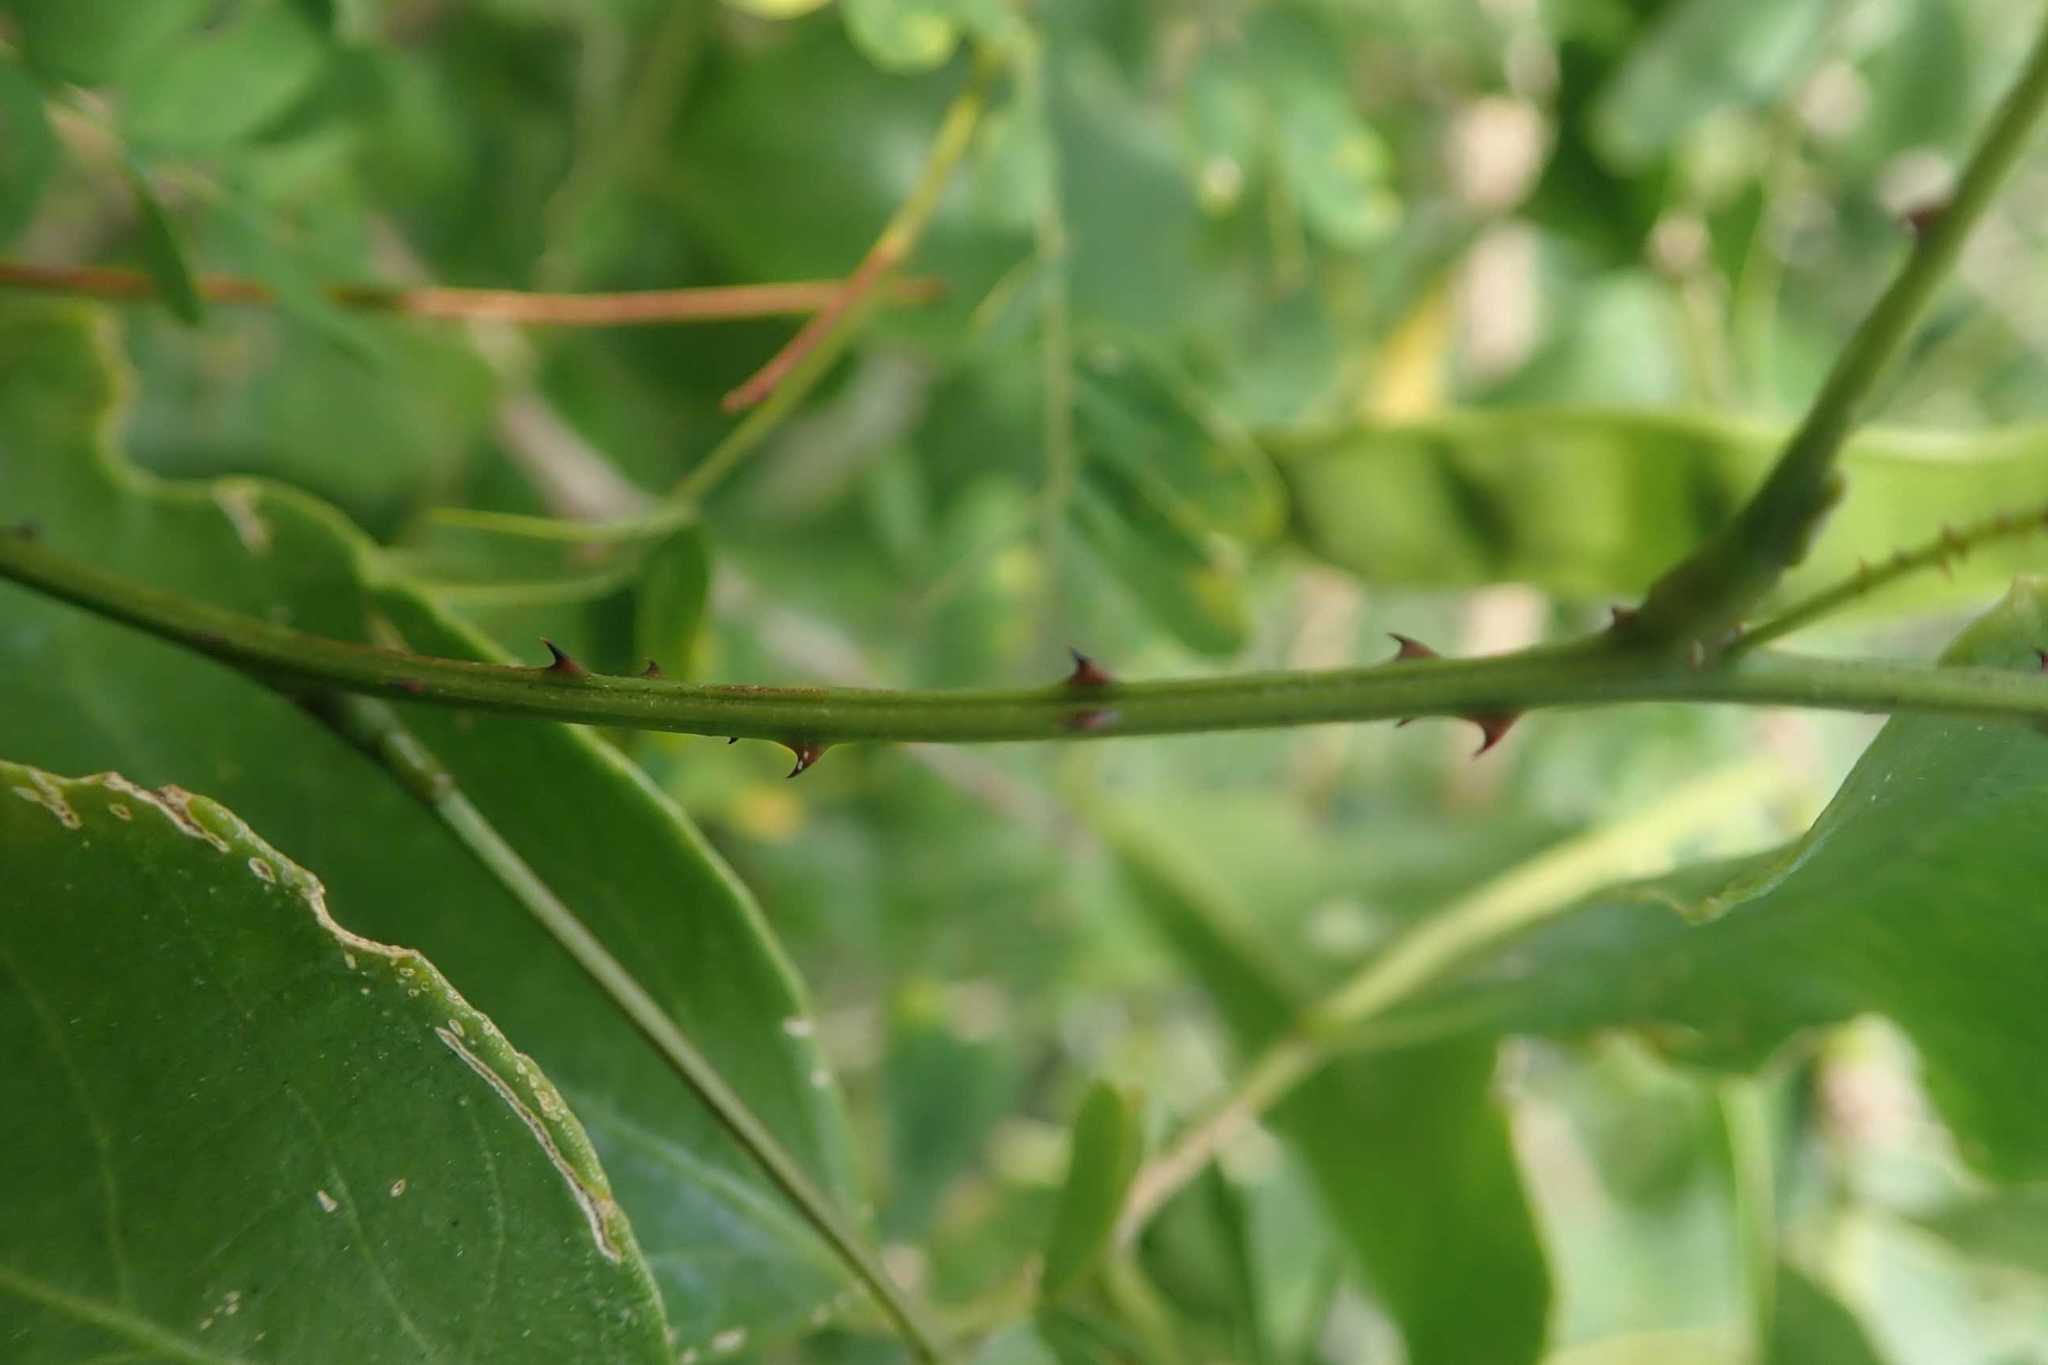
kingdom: Plantae
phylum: Tracheophyta
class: Magnoliopsida
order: Fabales
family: Fabaceae
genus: Senegalia
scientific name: Senegalia kraussiana
